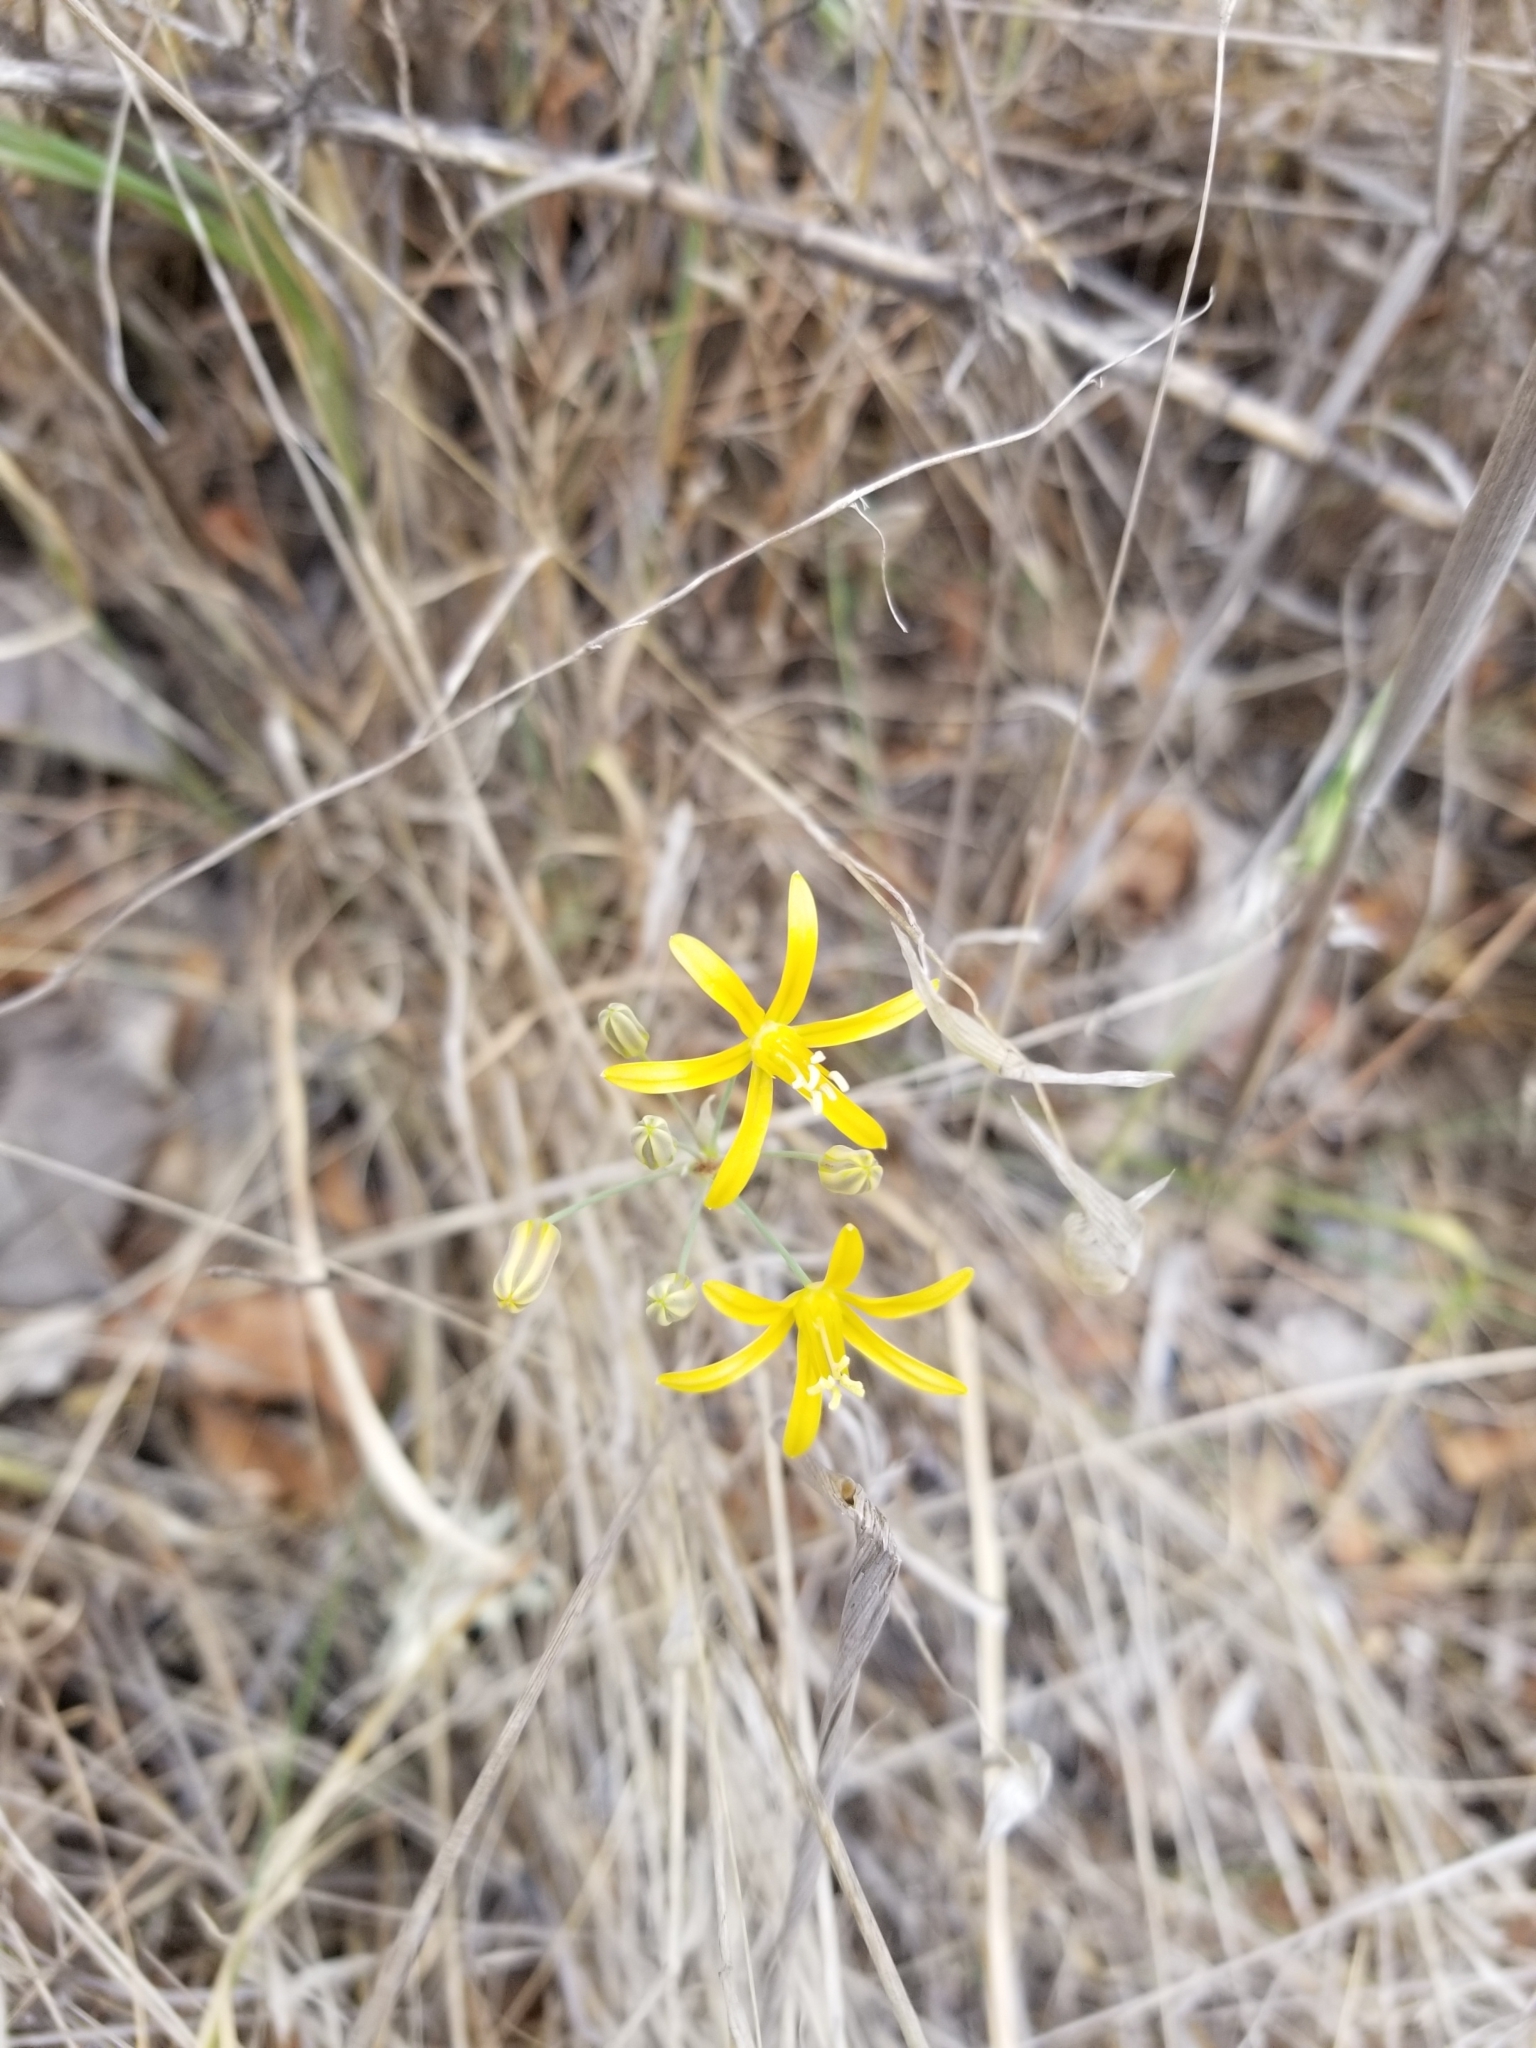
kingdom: Plantae
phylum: Tracheophyta
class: Liliopsida
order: Asparagales
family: Asparagaceae
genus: Bloomeria
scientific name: Bloomeria crocea
